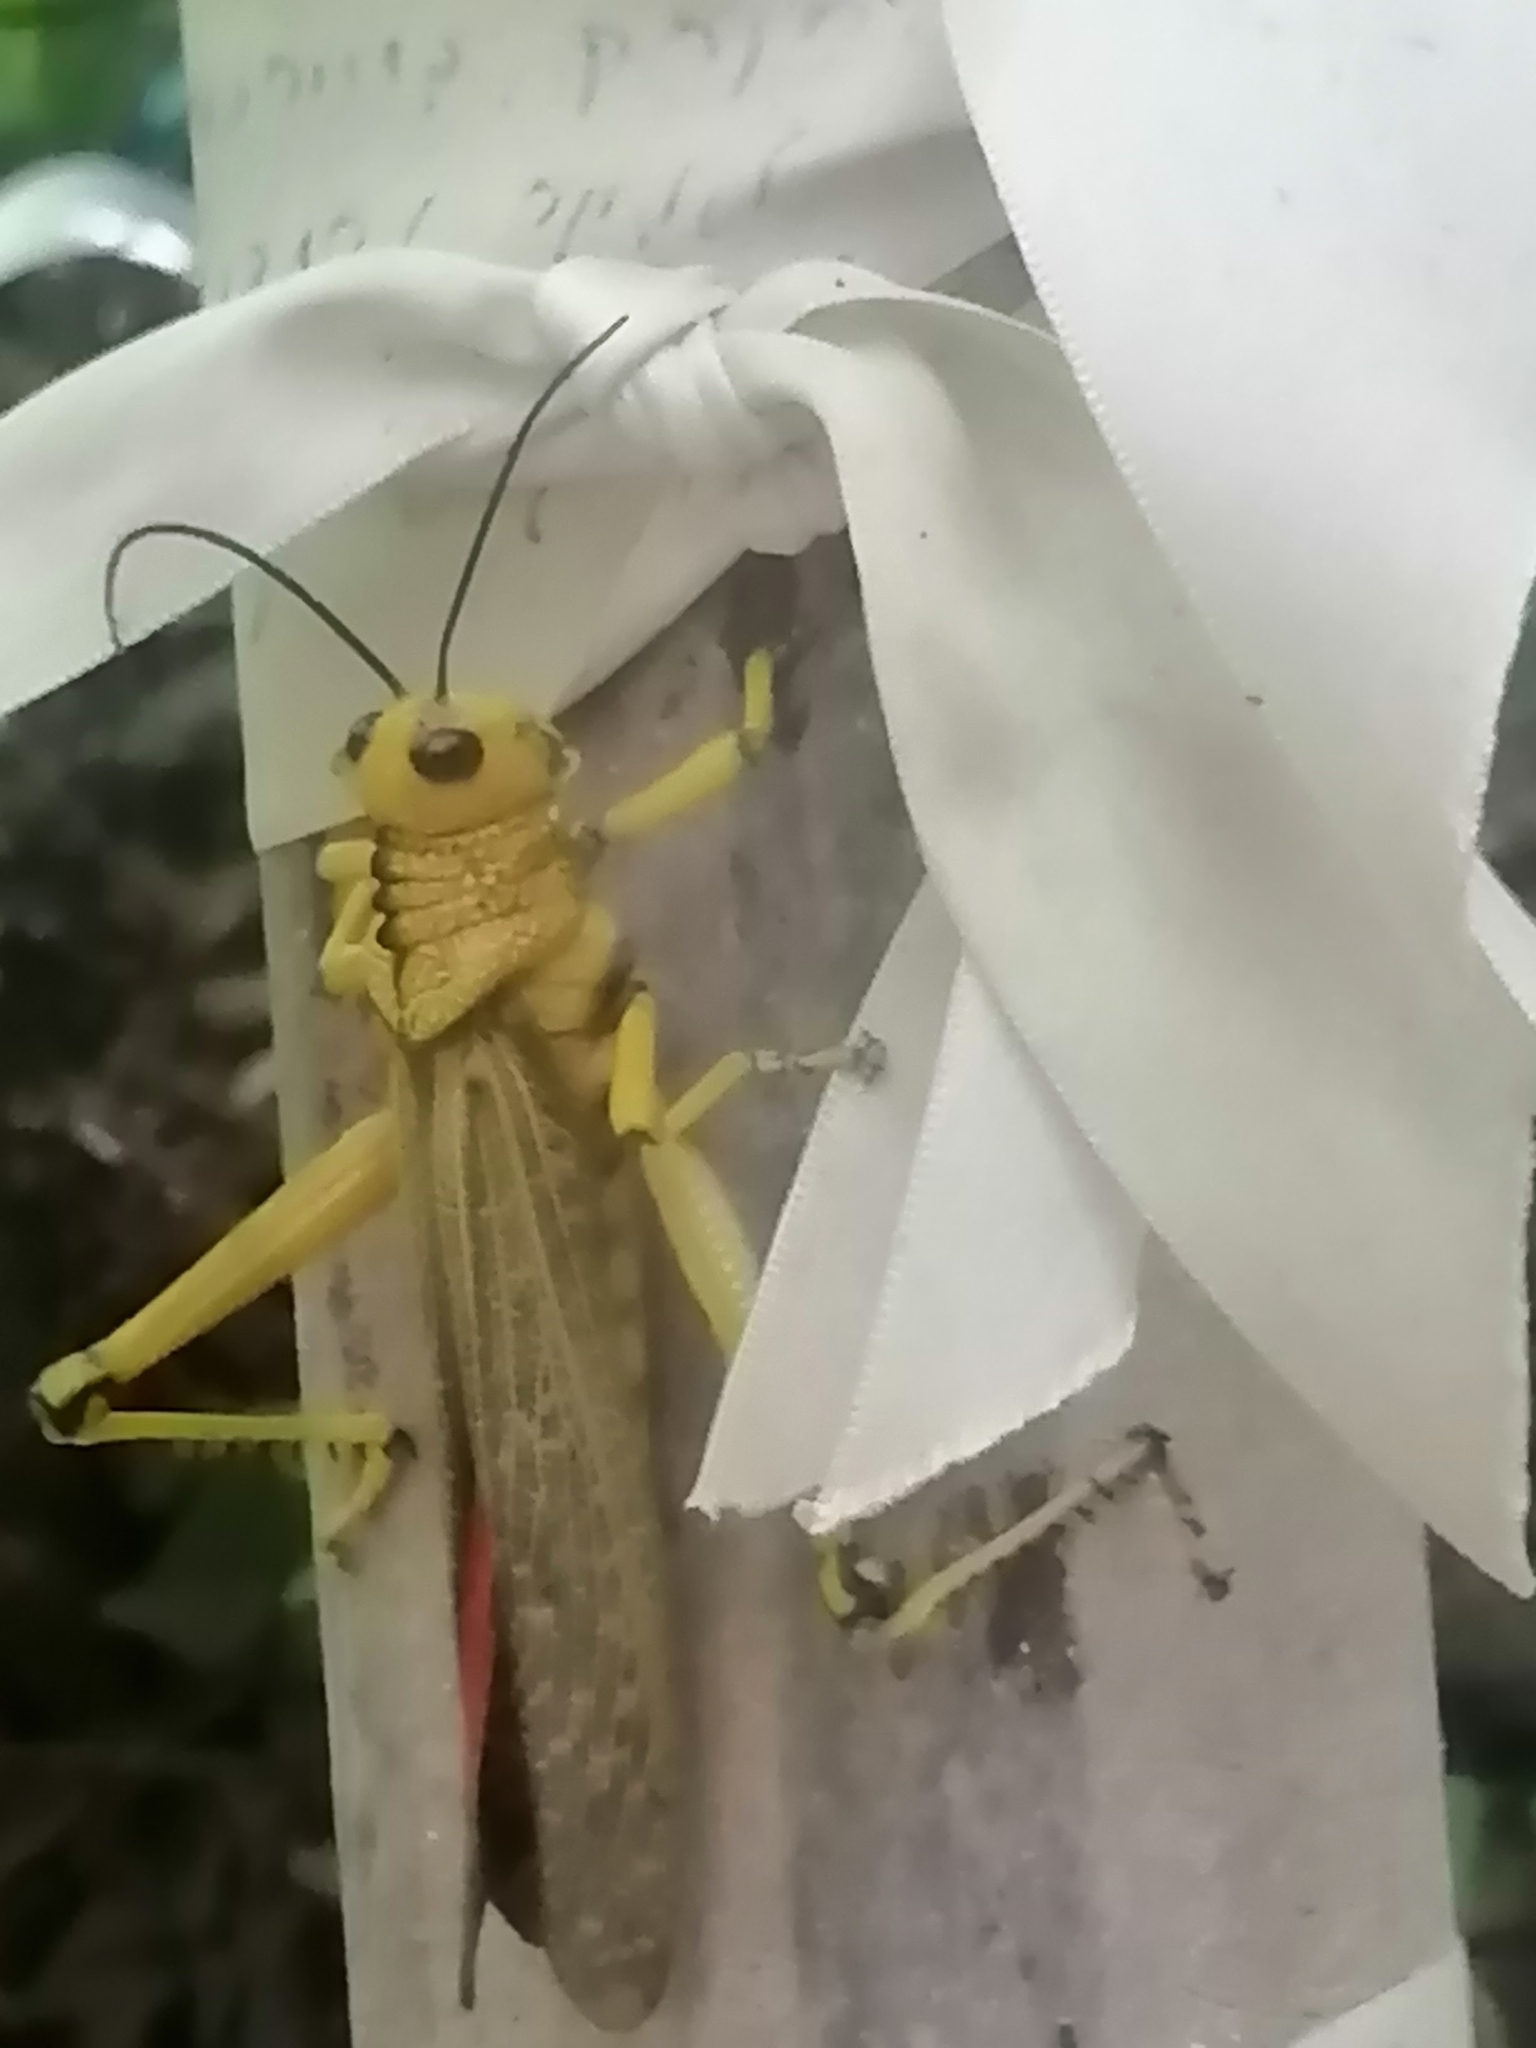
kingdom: Animalia
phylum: Arthropoda
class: Insecta
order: Orthoptera
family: Romaleidae
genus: Tropidacris
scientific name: Tropidacris cristata
